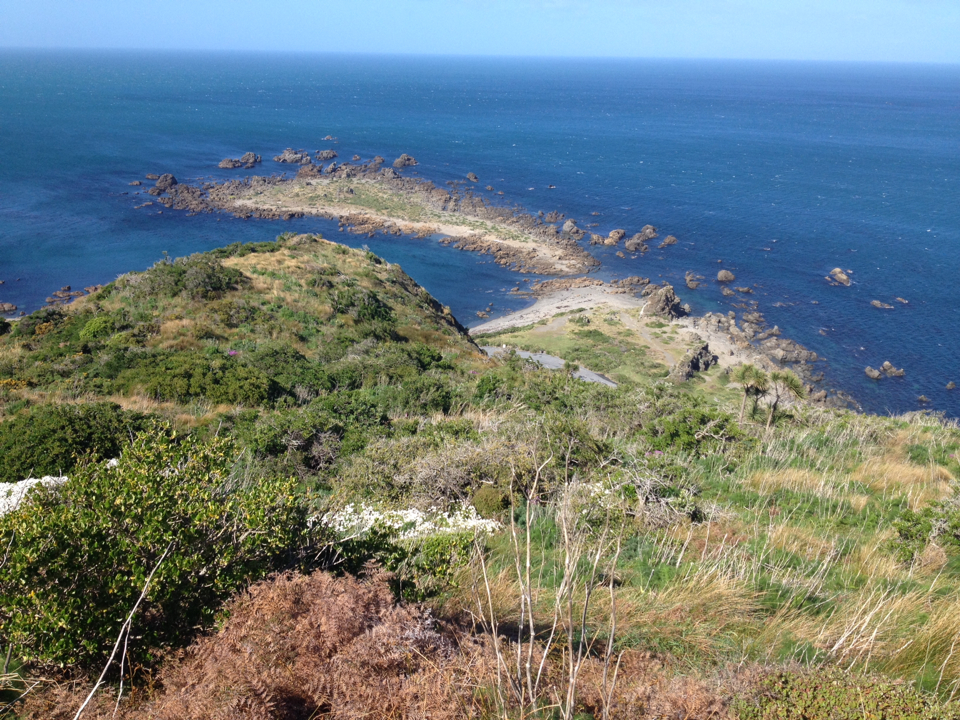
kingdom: Plantae
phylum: Tracheophyta
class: Polypodiopsida
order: Polypodiales
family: Dennstaedtiaceae
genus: Pteridium
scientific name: Pteridium esculentum
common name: Bracken fern
